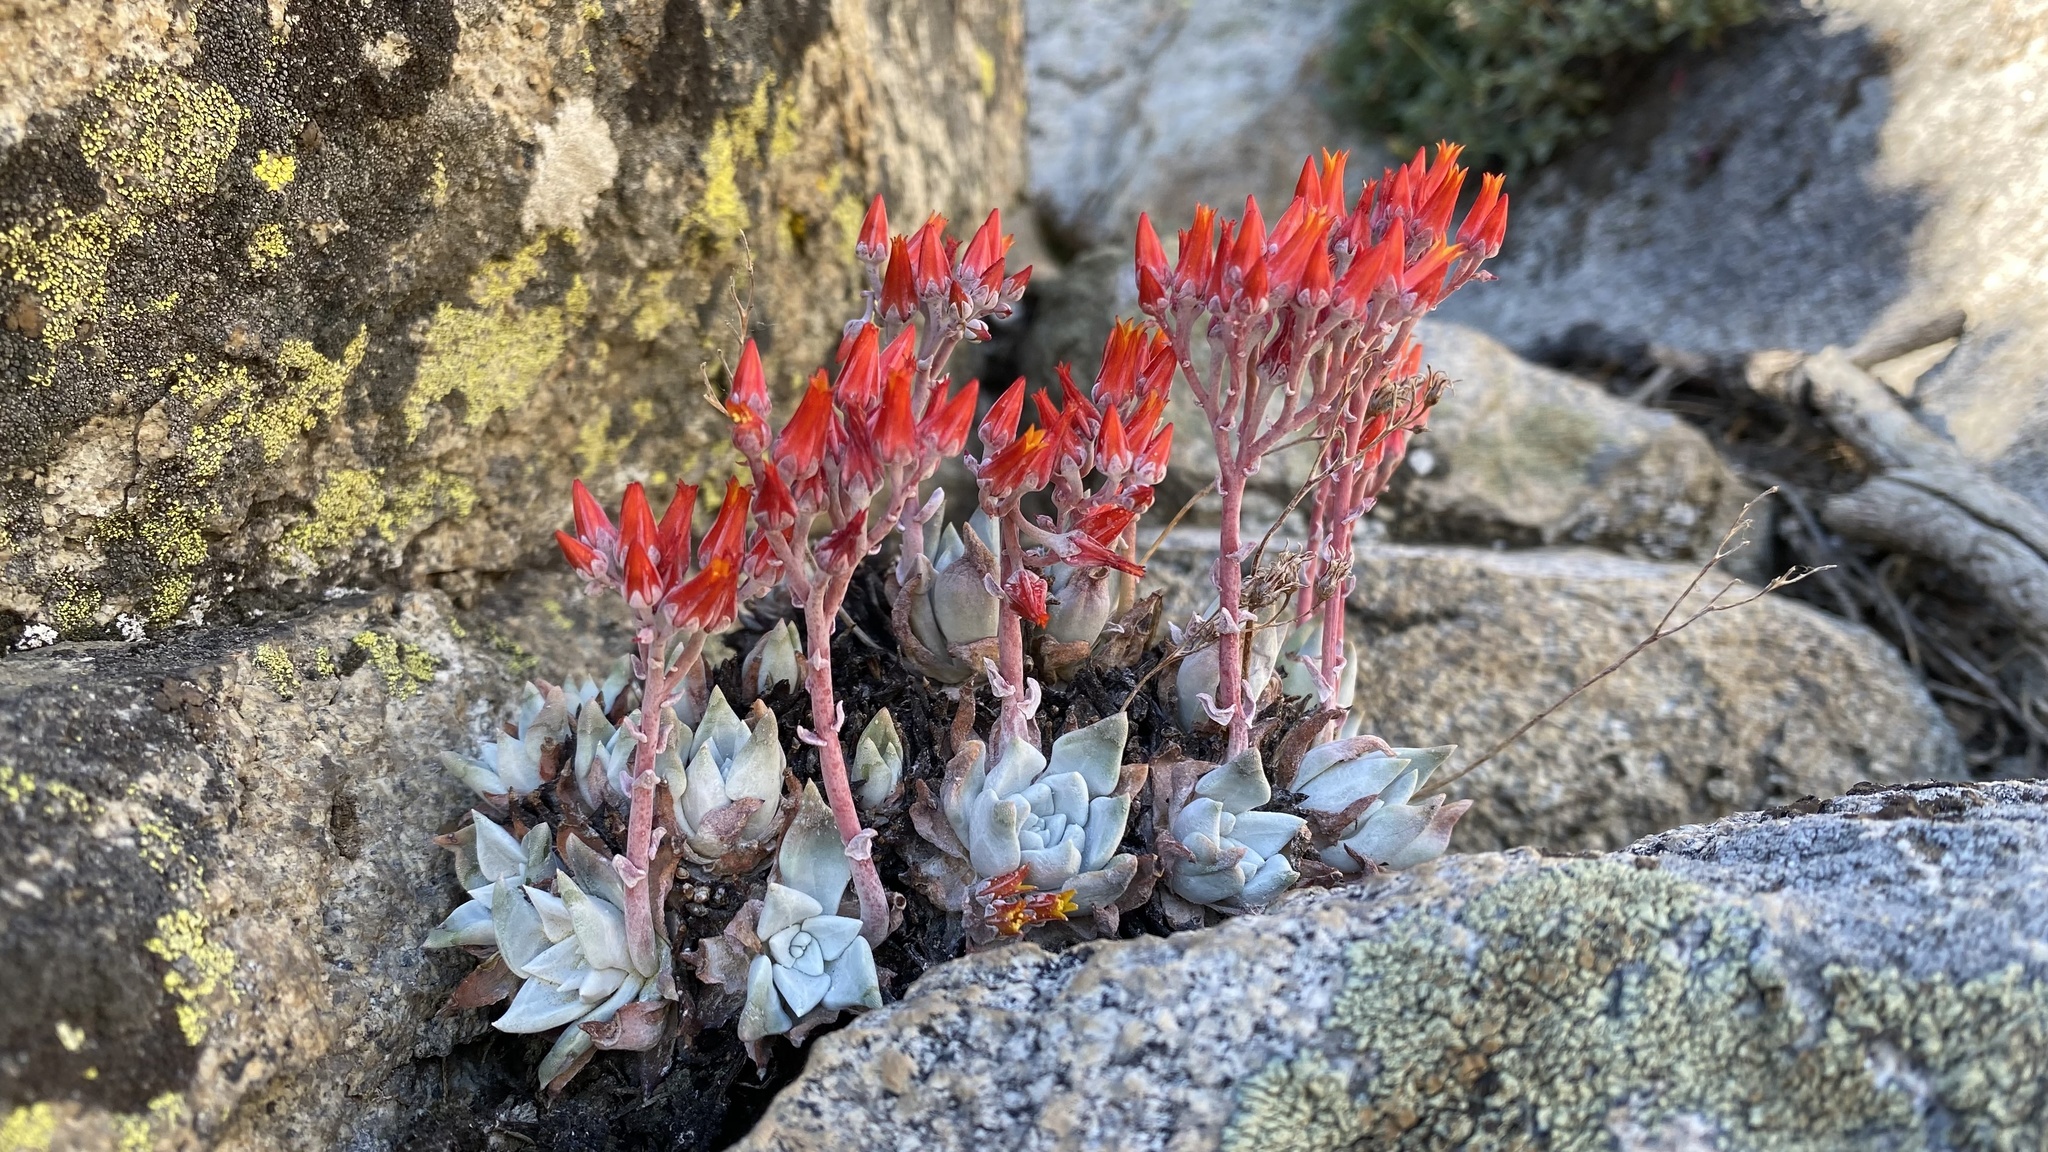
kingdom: Plantae
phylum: Tracheophyta
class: Magnoliopsida
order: Saxifragales
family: Crassulaceae
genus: Dudleya
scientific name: Dudleya cymosa
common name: Canyon dudleya
